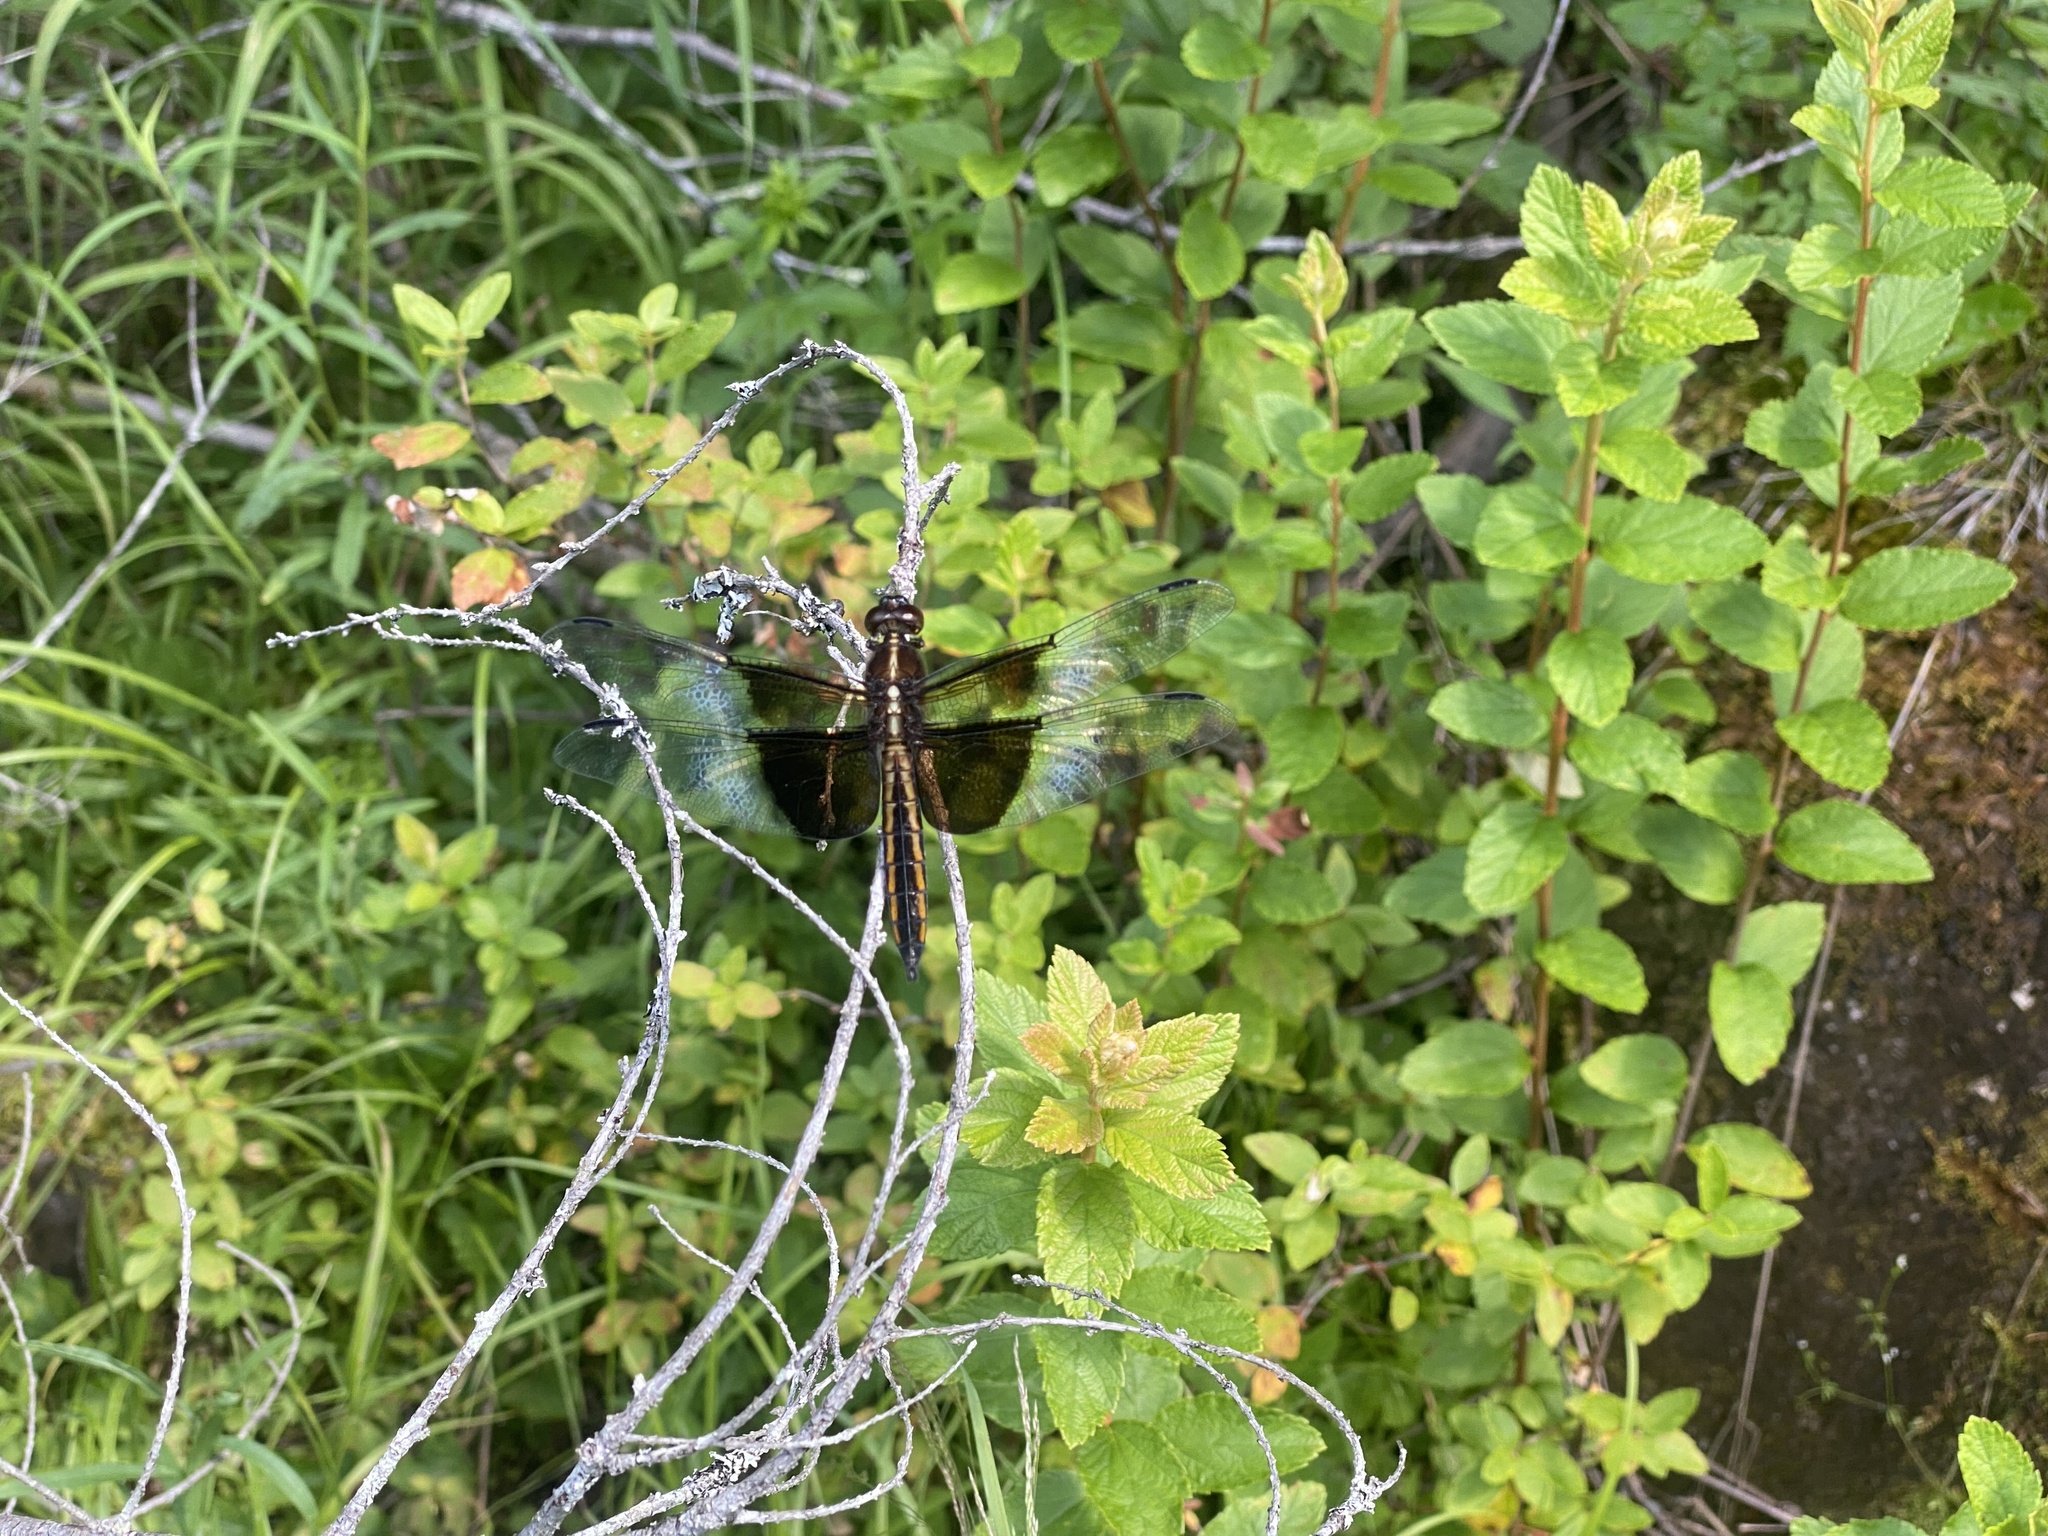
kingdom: Animalia
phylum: Arthropoda
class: Insecta
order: Odonata
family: Libellulidae
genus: Libellula
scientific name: Libellula luctuosa
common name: Widow skimmer
